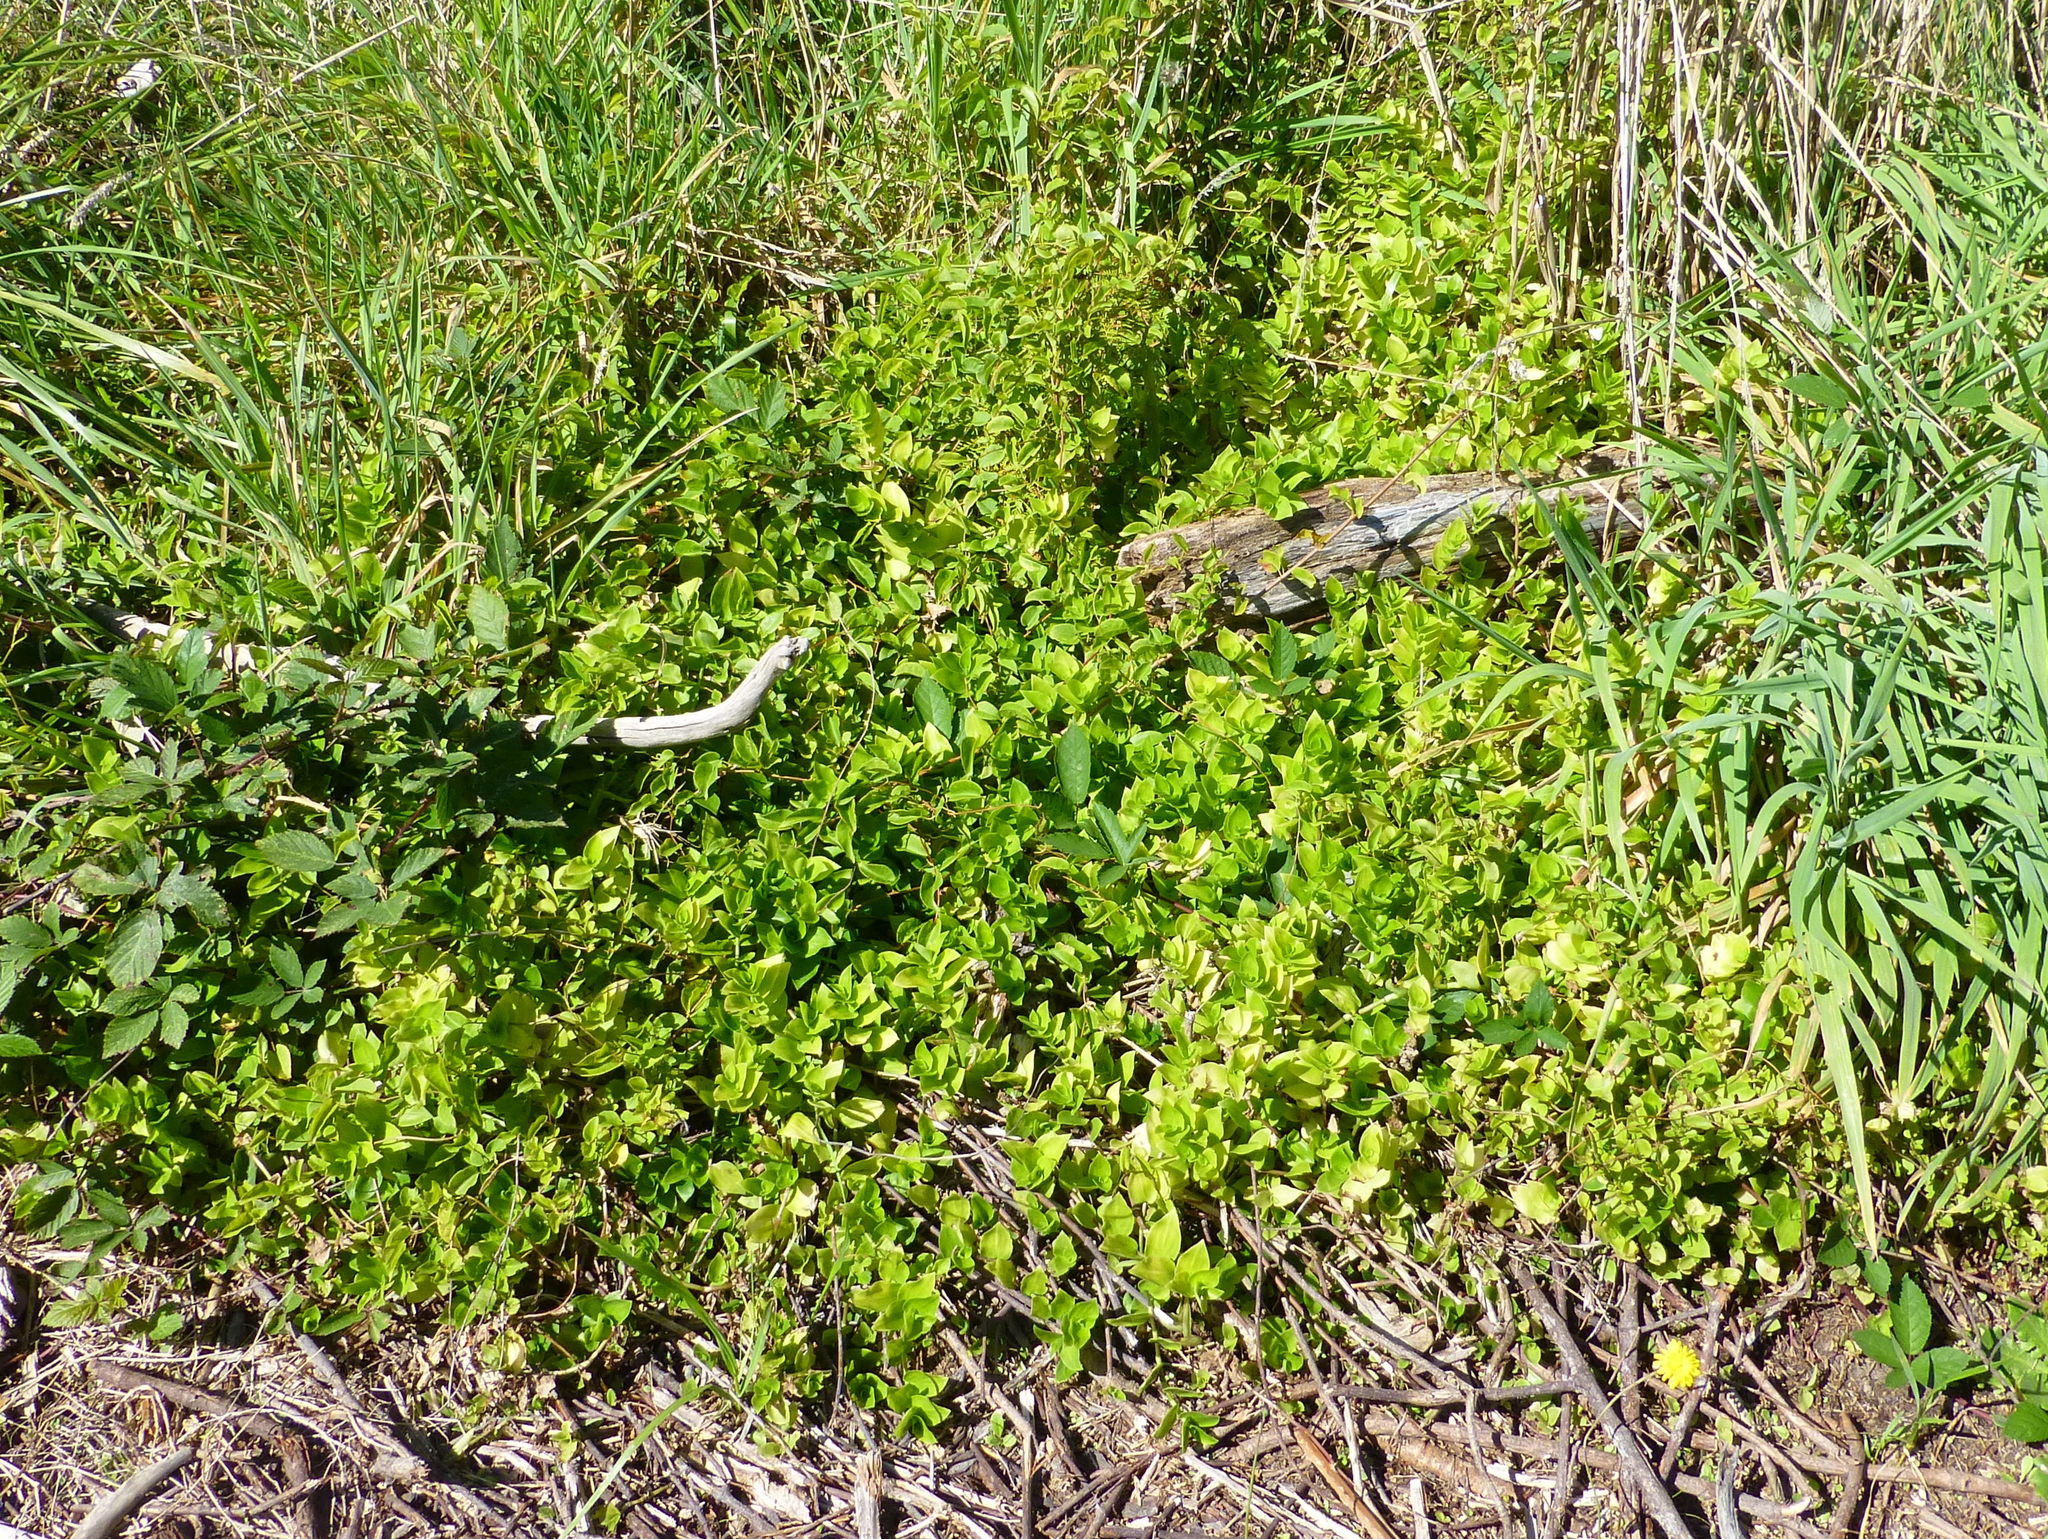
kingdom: Plantae
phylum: Tracheophyta
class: Liliopsida
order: Commelinales
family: Commelinaceae
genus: Tradescantia
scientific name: Tradescantia fluminensis
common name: Wandering-jew
